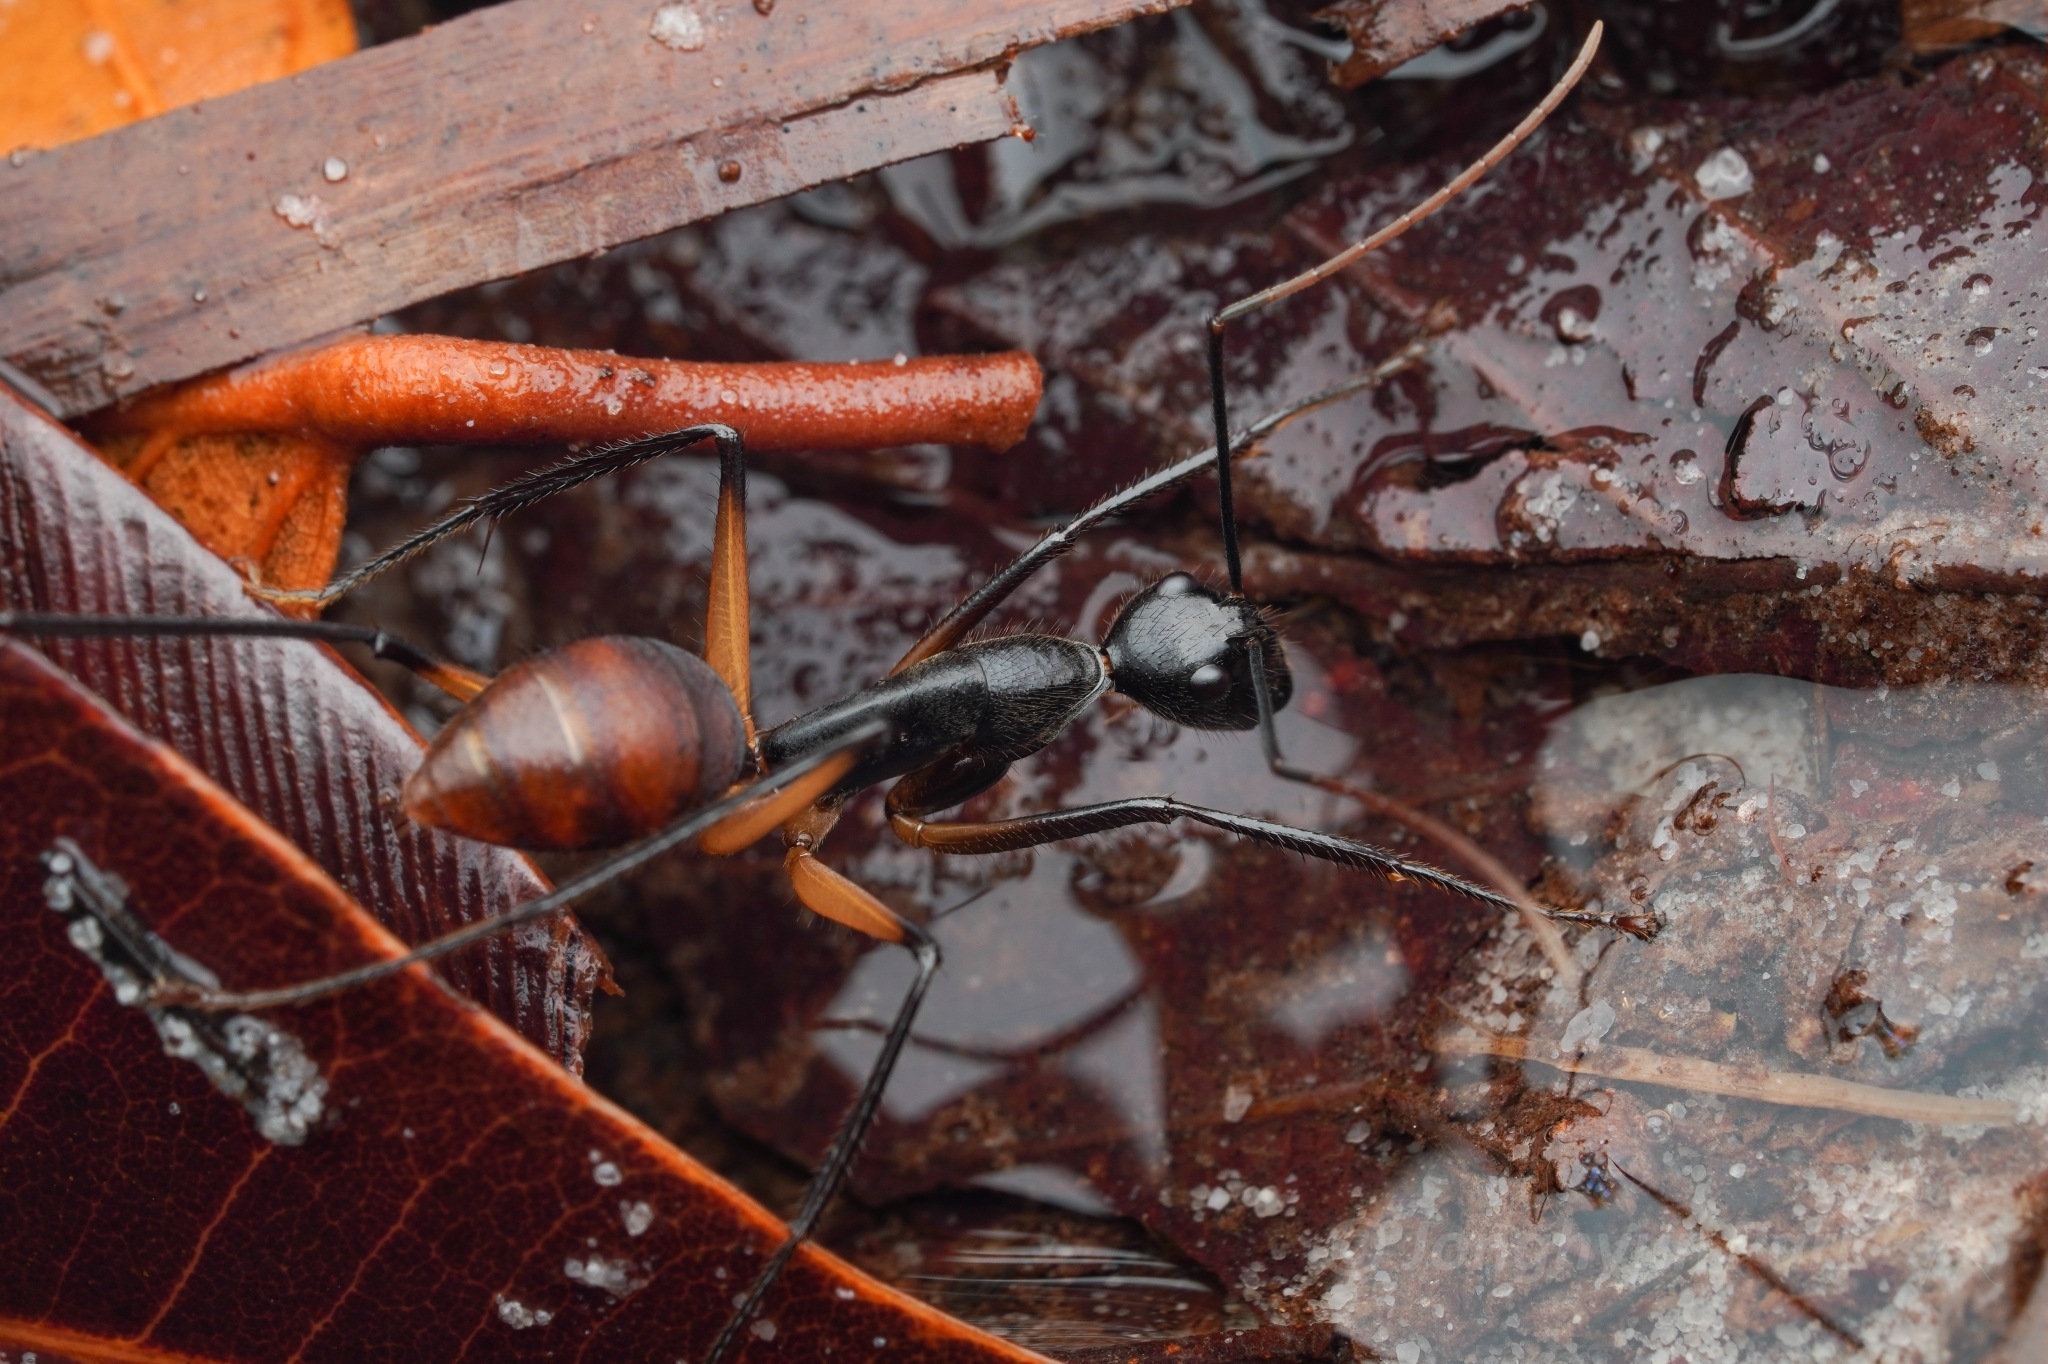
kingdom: Animalia
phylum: Arthropoda
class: Insecta
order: Hymenoptera
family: Formicidae
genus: Dinomyrmex
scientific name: Dinomyrmex
